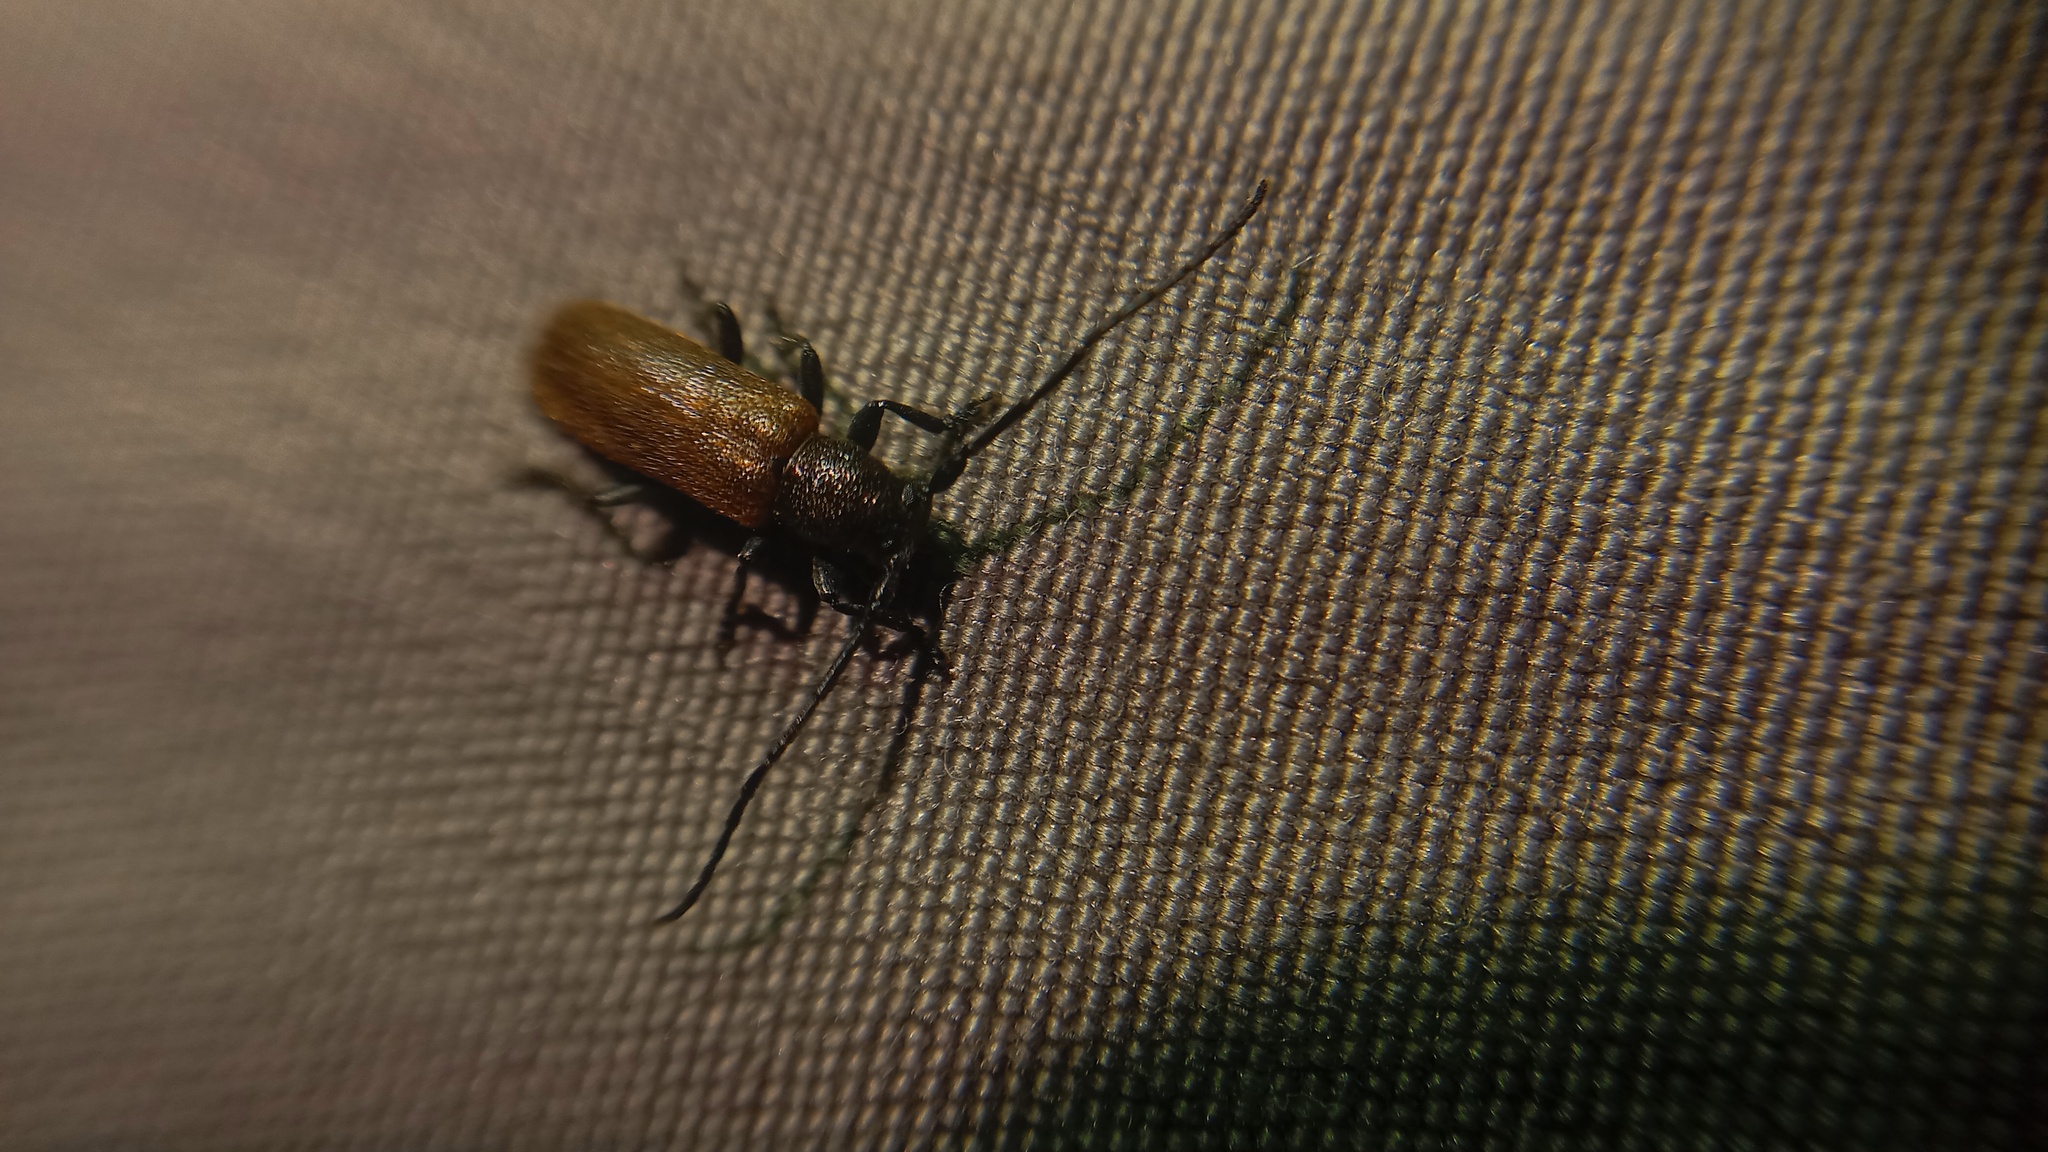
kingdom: Animalia
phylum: Arthropoda
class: Insecta
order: Coleoptera
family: Cerambycidae
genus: Anaesthetis
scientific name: Anaesthetis testacea
